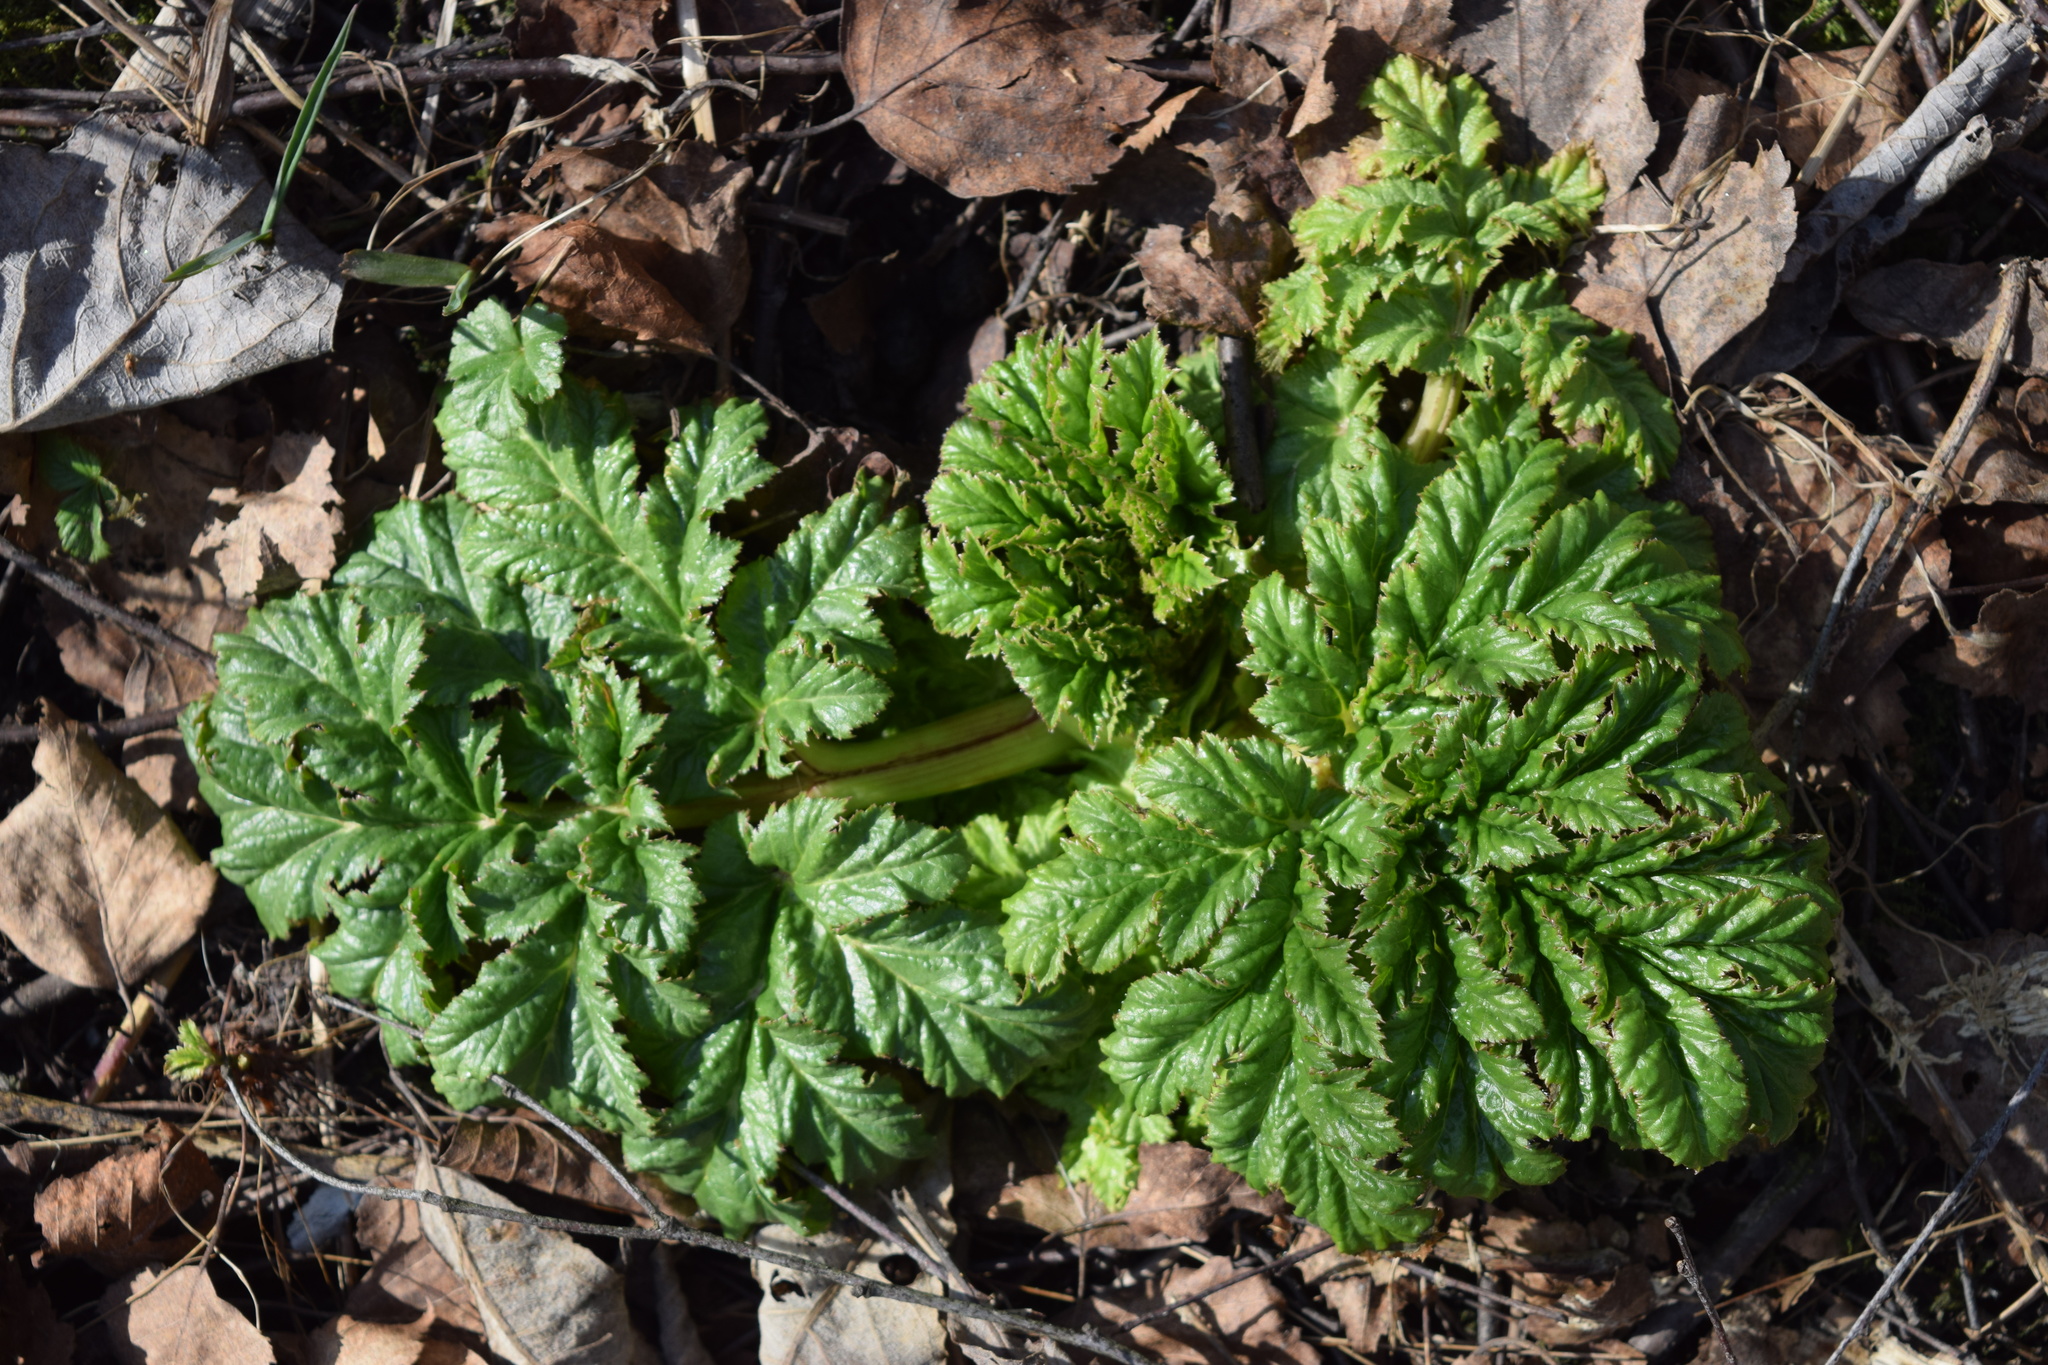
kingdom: Plantae
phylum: Tracheophyta
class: Magnoliopsida
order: Apiales
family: Apiaceae
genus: Heracleum
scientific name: Heracleum sosnowskyi
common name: Sosnowsky's hogweed
